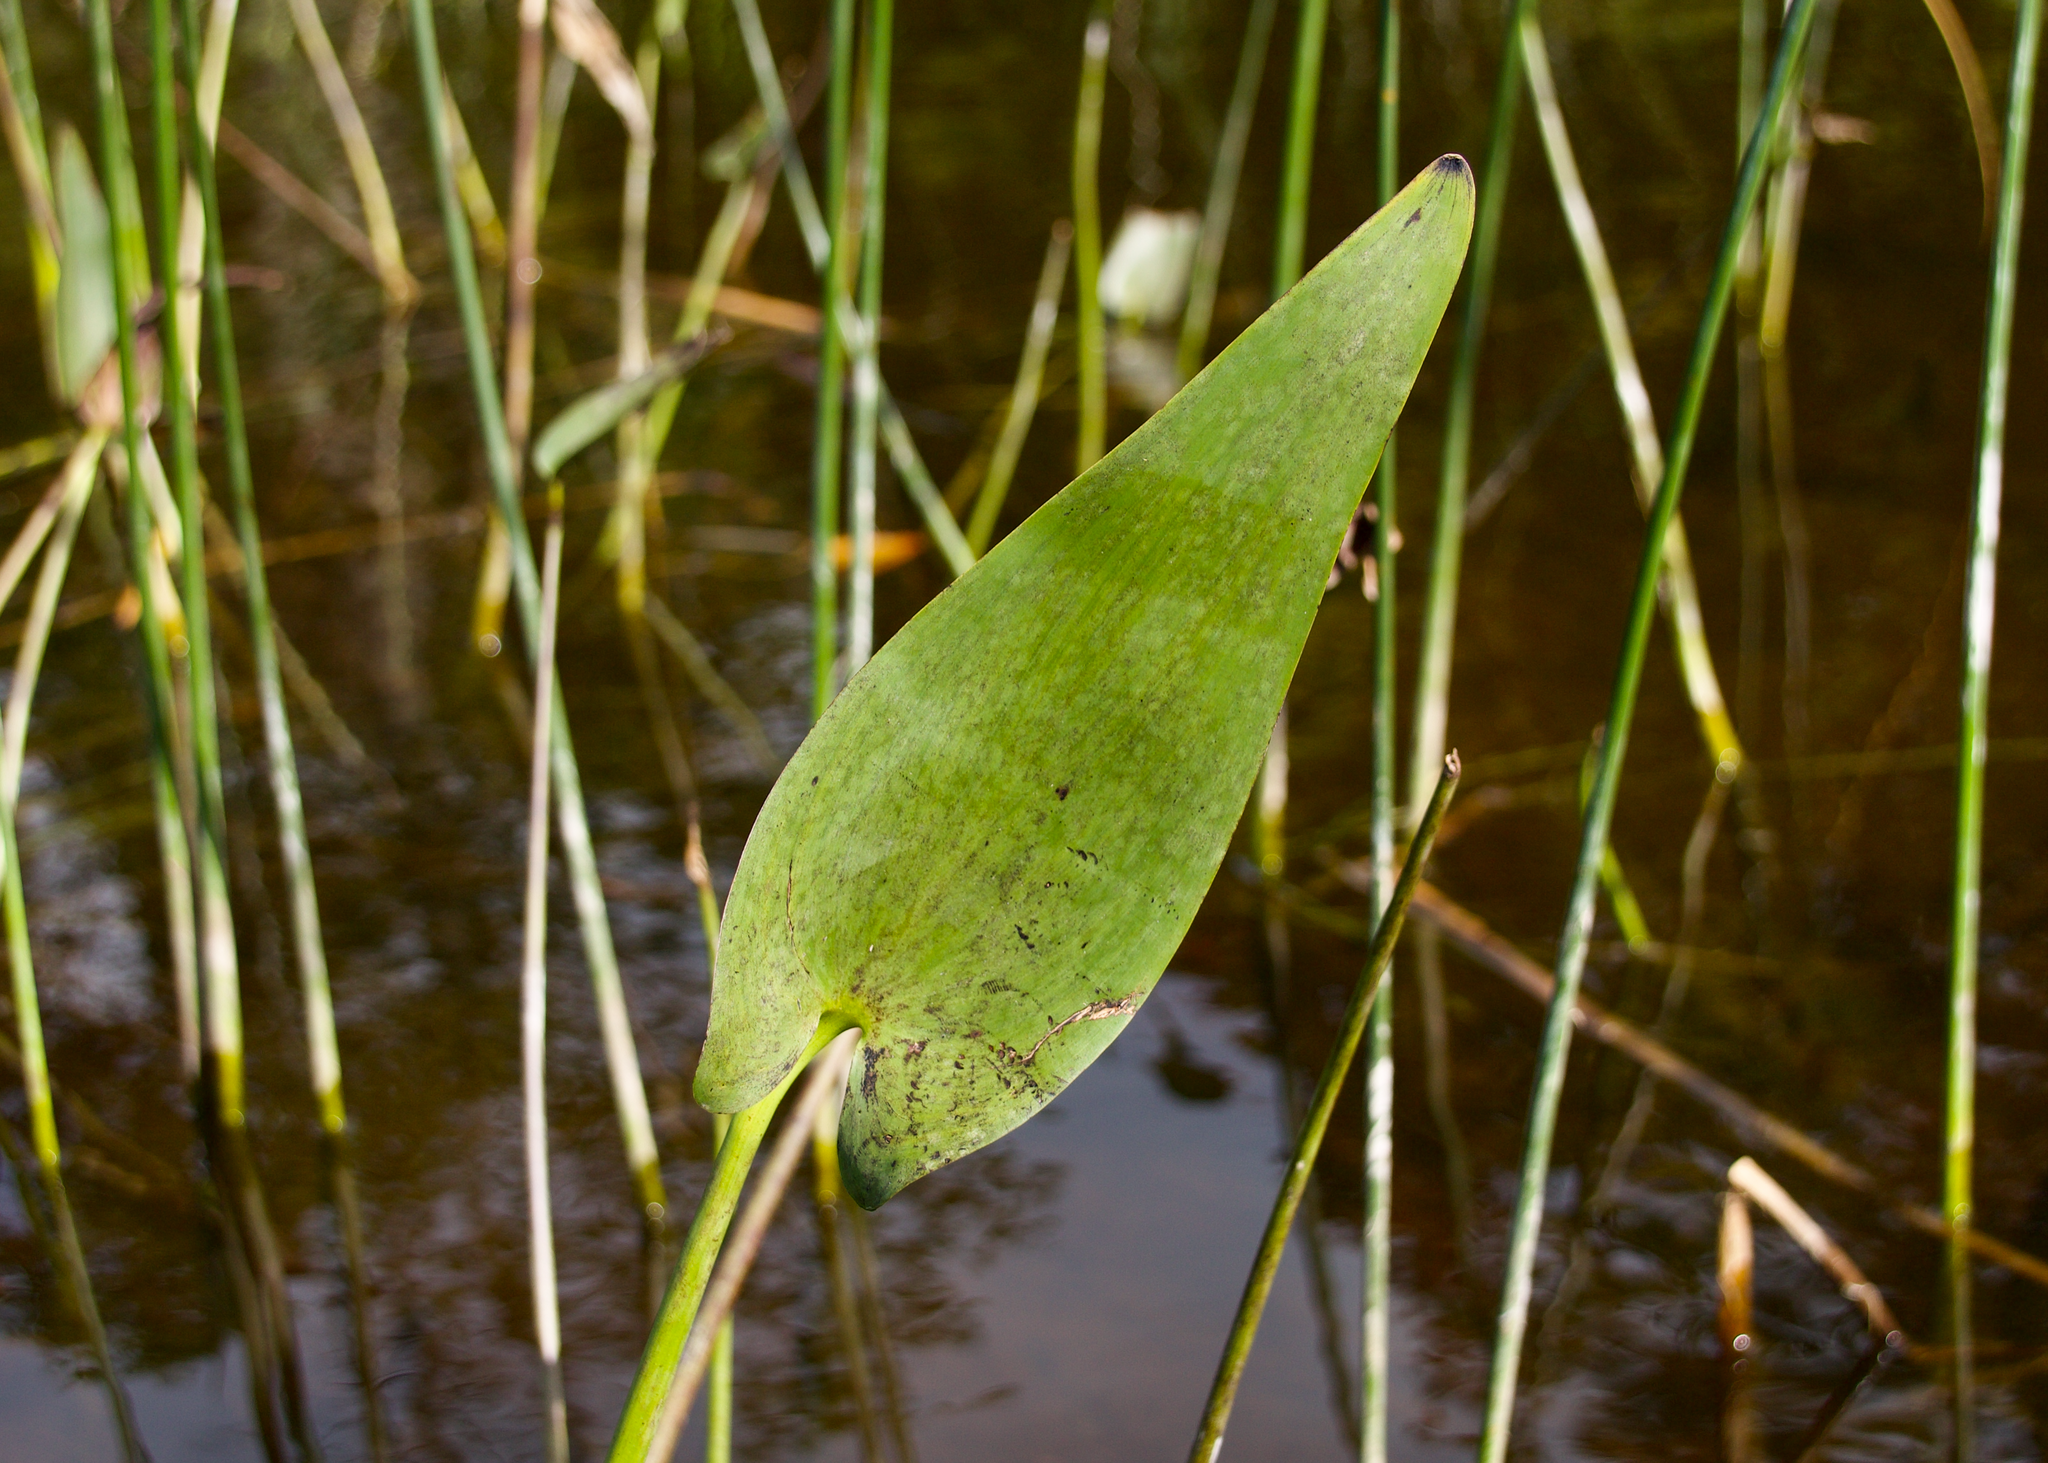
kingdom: Plantae
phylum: Tracheophyta
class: Liliopsida
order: Commelinales
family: Pontederiaceae
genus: Pontederia
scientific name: Pontederia cordata
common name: Pickerelweed
